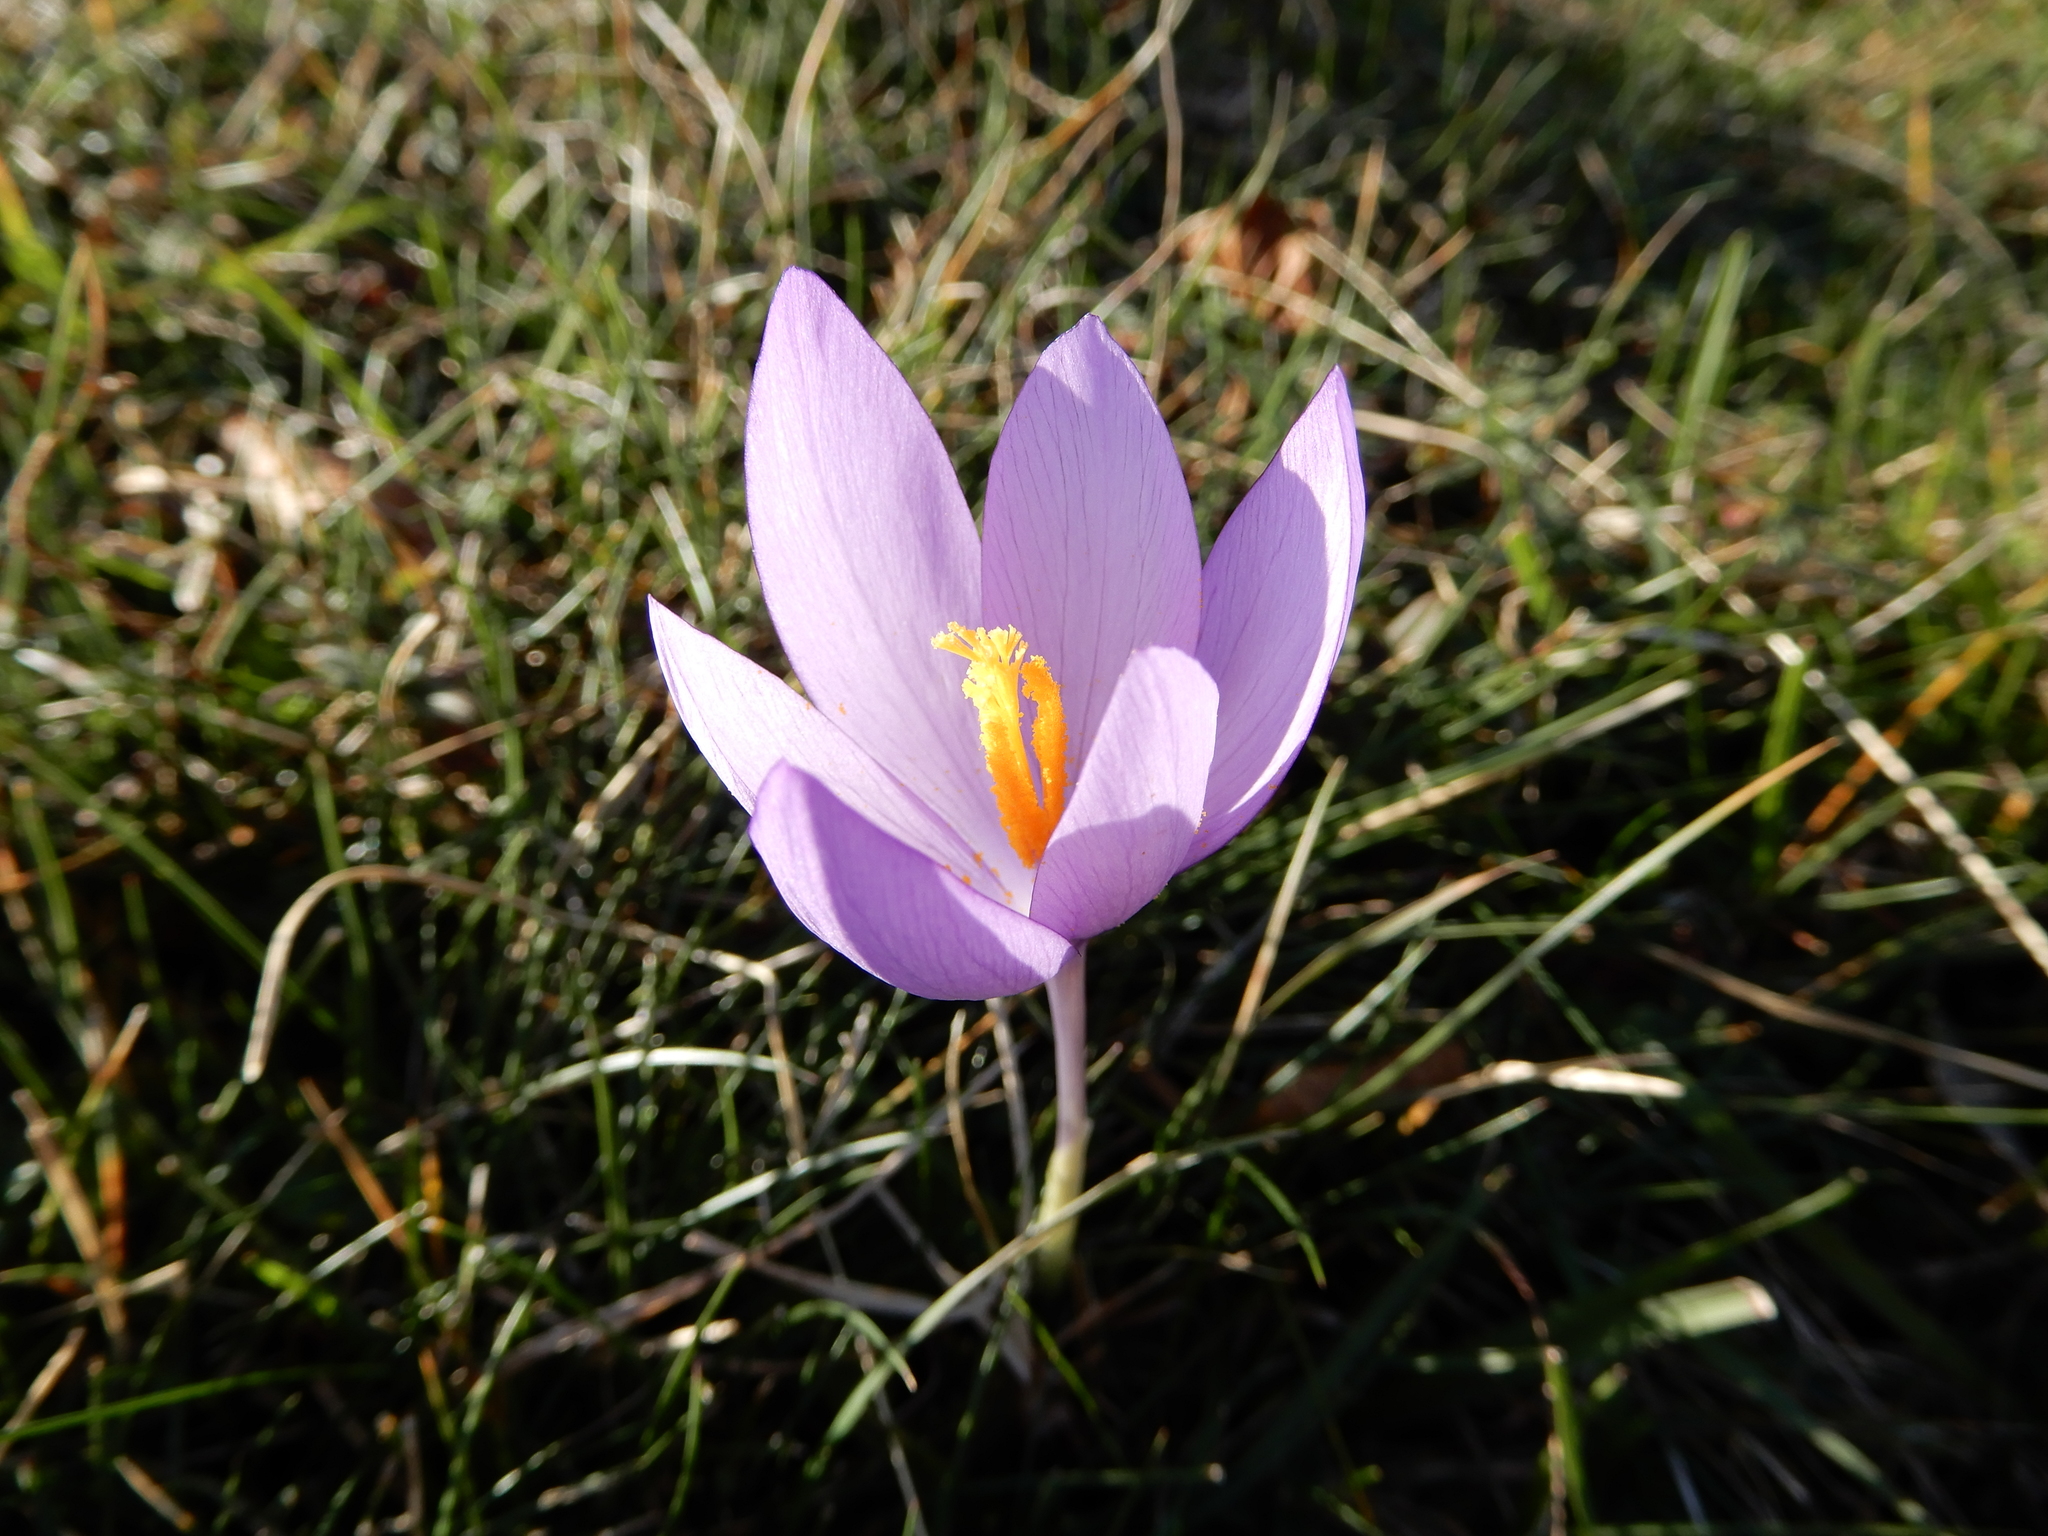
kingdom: Plantae
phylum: Tracheophyta
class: Liliopsida
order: Asparagales
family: Iridaceae
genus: Crocus
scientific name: Crocus nudiflorus
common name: Autumn crocus
